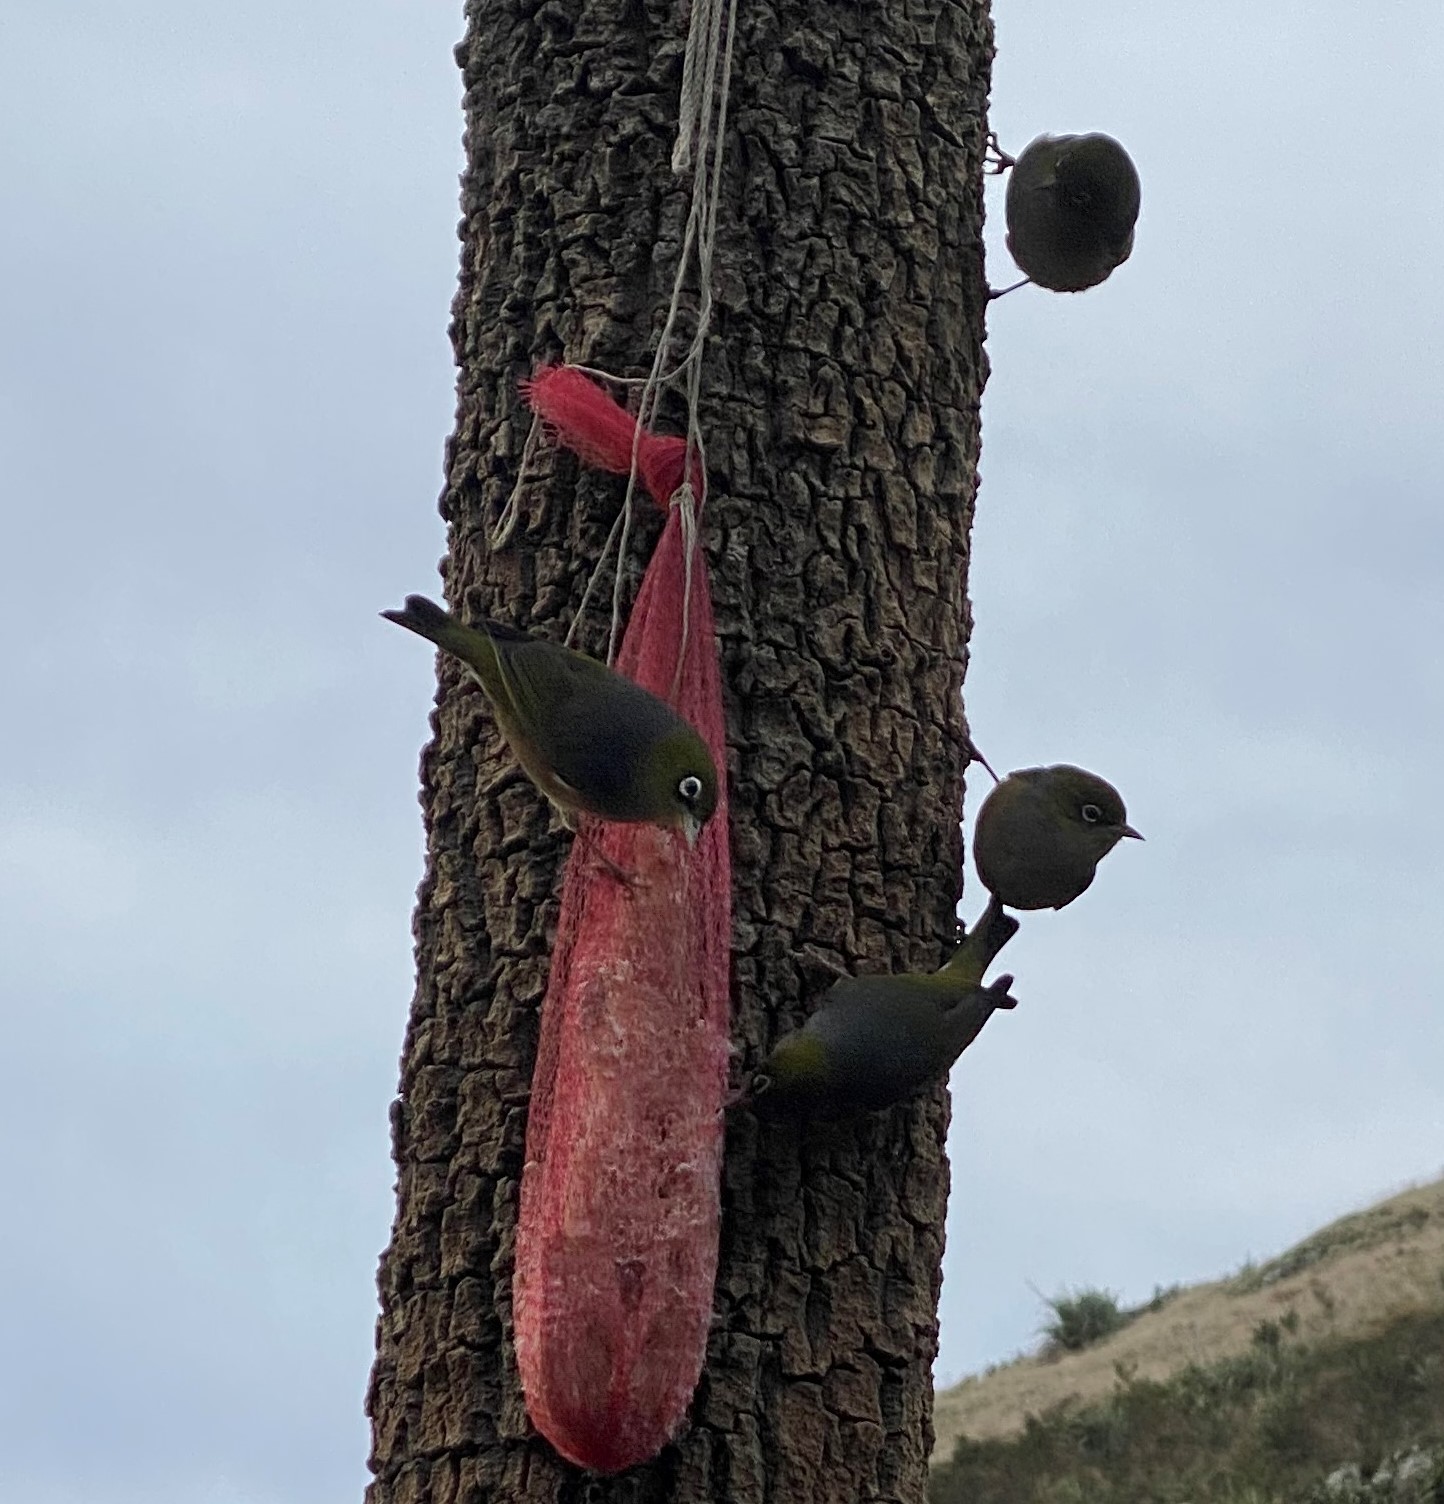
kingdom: Animalia
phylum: Chordata
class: Aves
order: Passeriformes
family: Zosteropidae
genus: Zosterops
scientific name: Zosterops lateralis
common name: Silvereye
